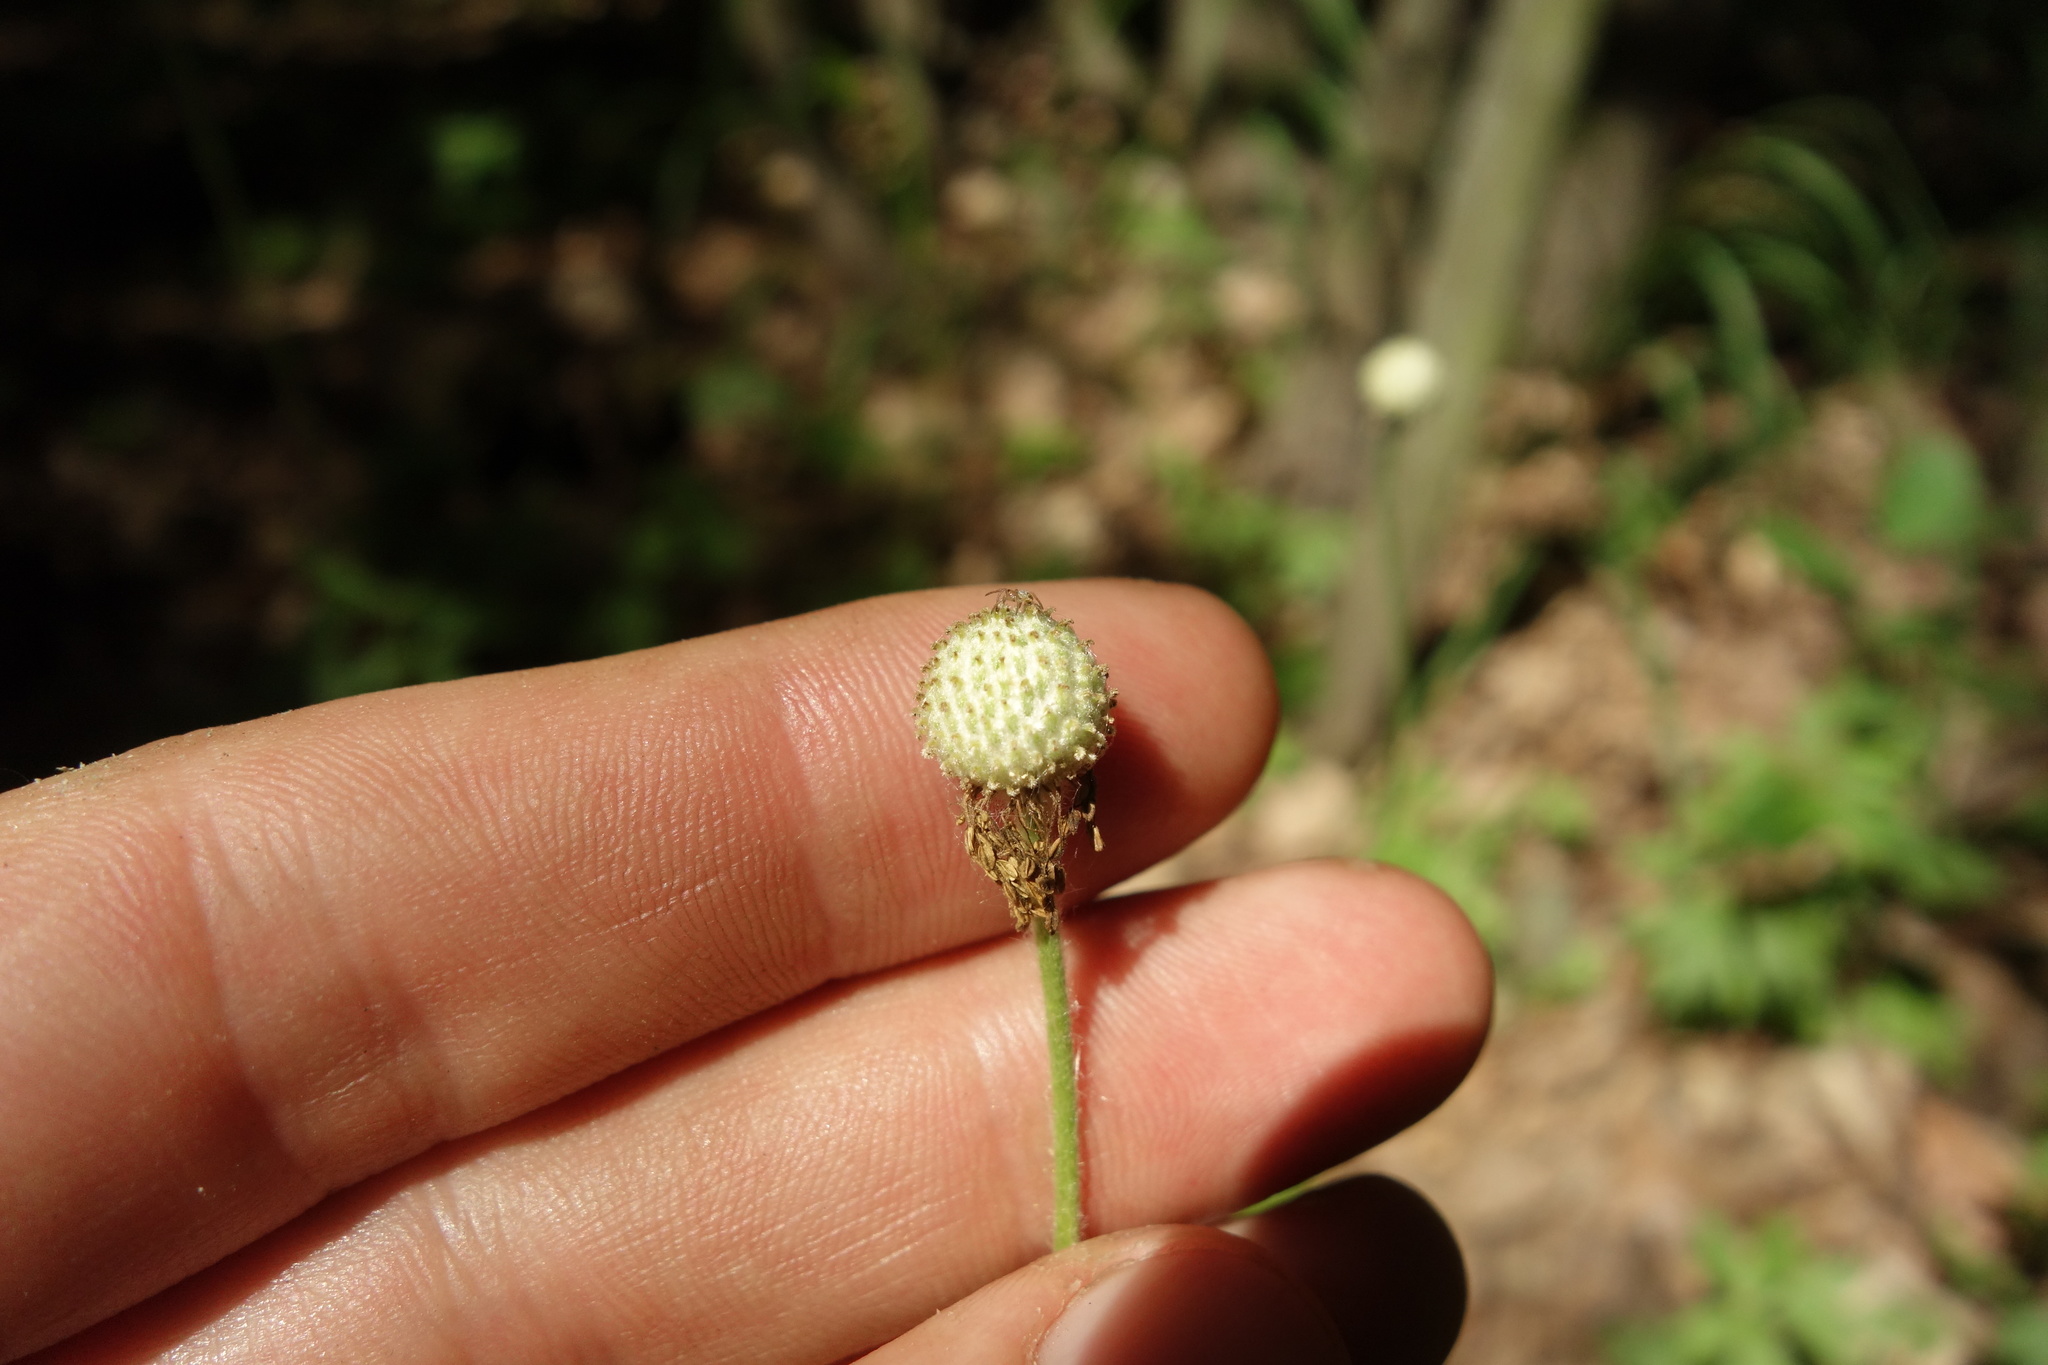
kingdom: Plantae
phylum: Tracheophyta
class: Magnoliopsida
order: Ranunculales
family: Ranunculaceae
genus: Anemone
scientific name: Anemone sylvestris
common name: Snowdrop anemone
